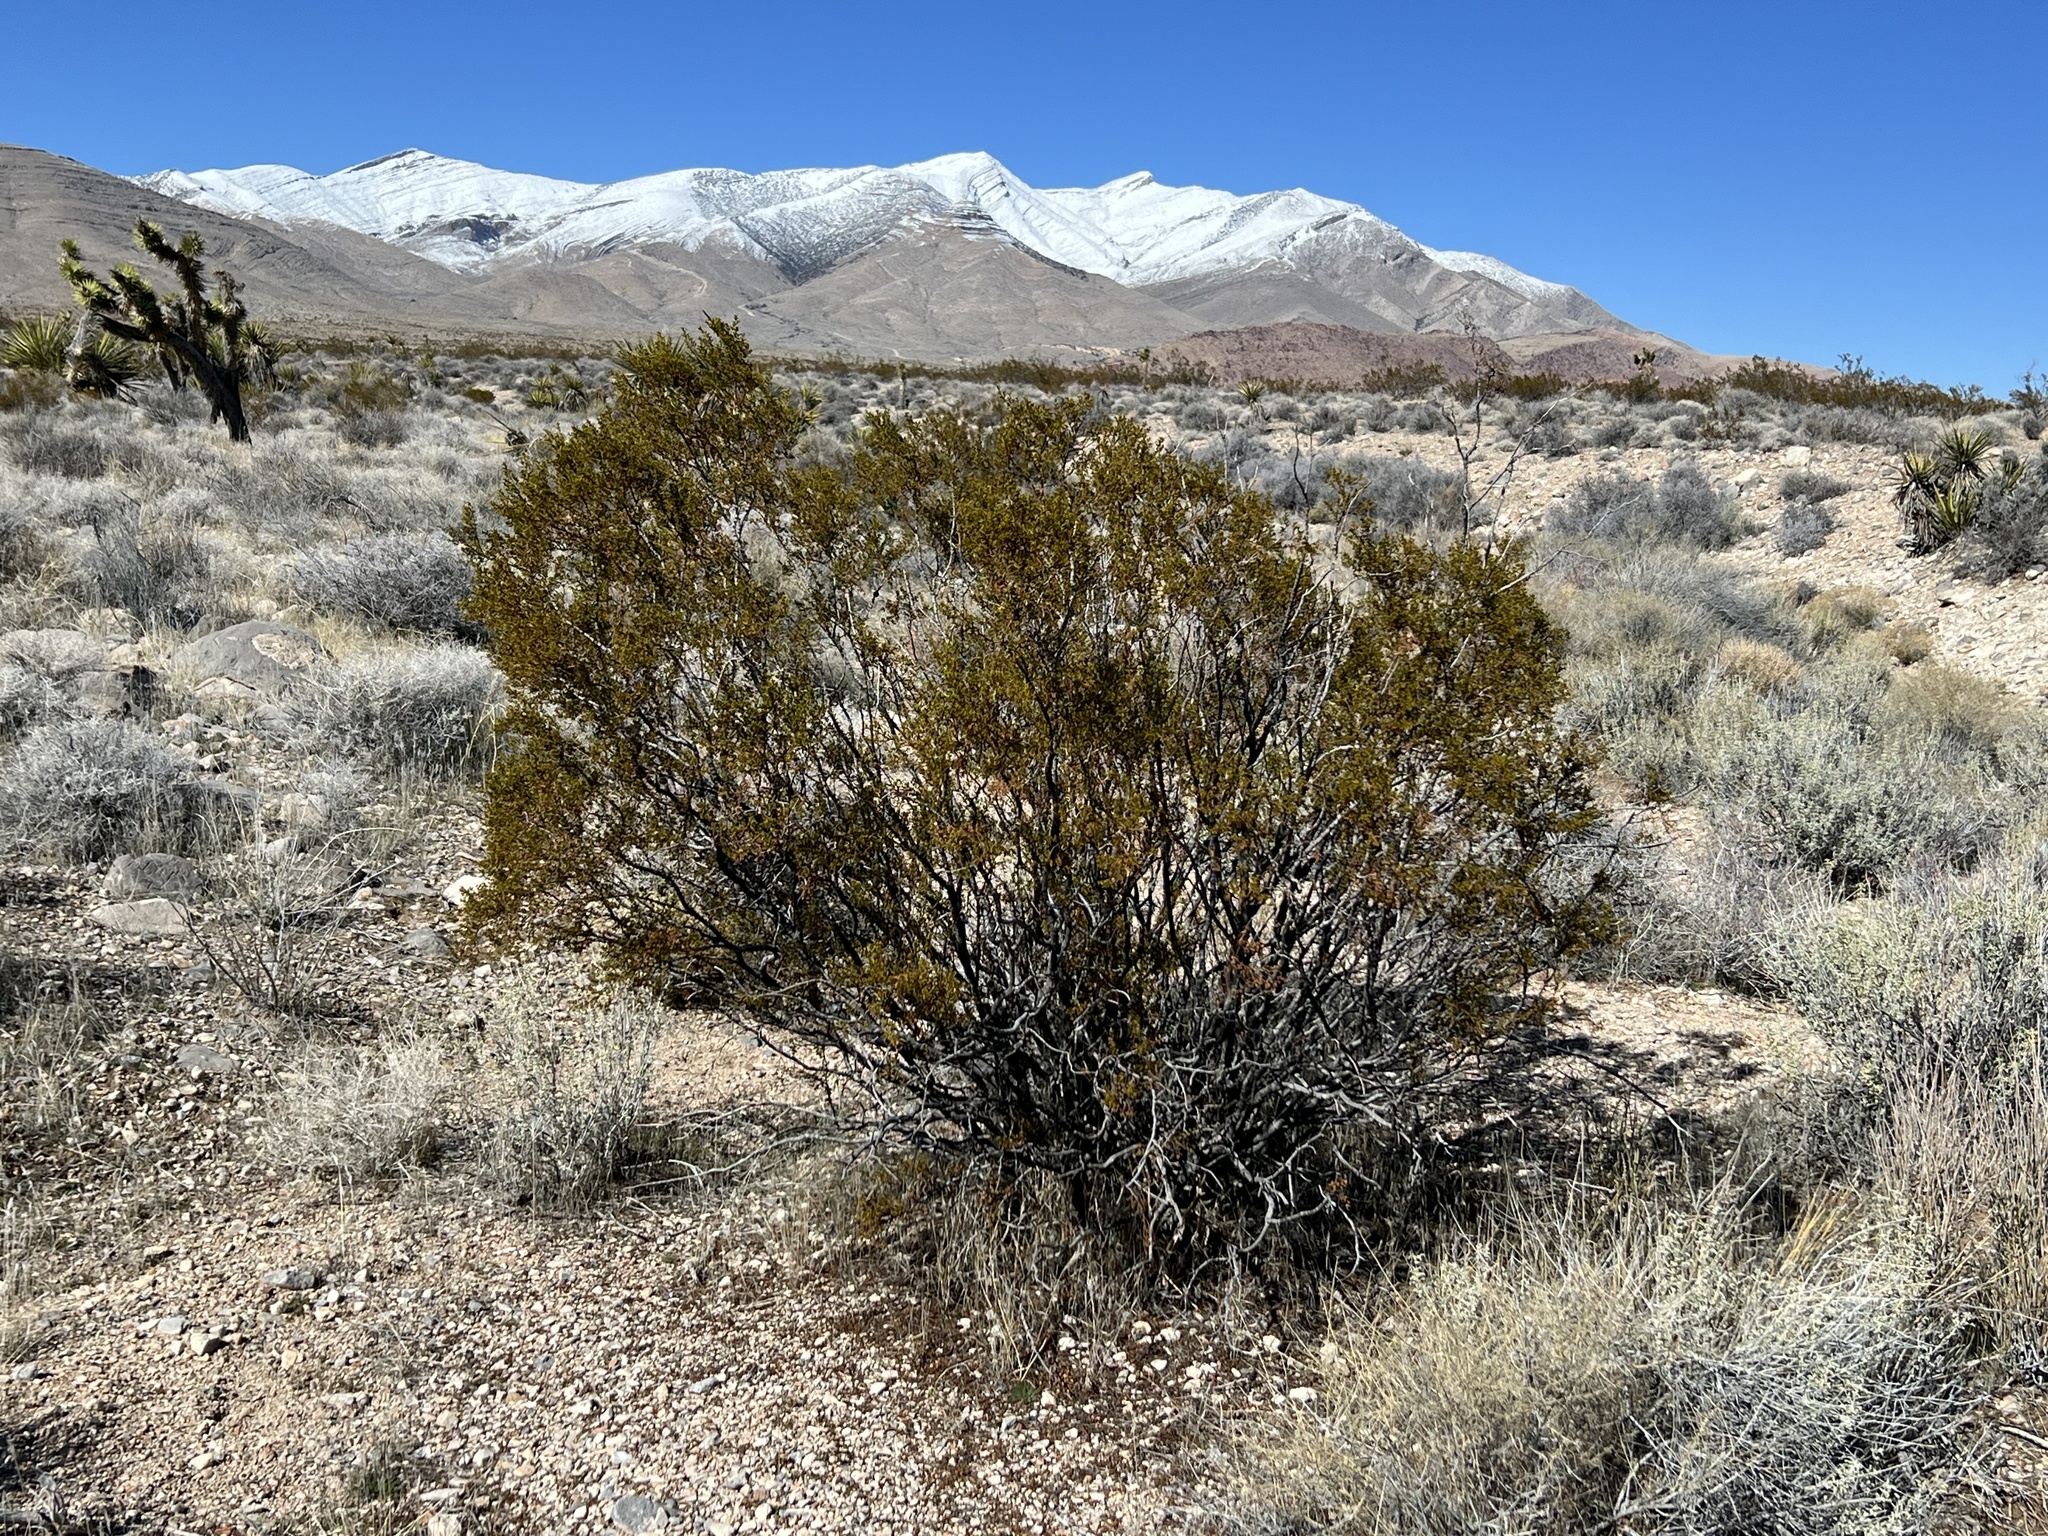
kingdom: Plantae
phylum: Tracheophyta
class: Magnoliopsida
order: Zygophyllales
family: Zygophyllaceae
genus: Larrea
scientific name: Larrea tridentata
